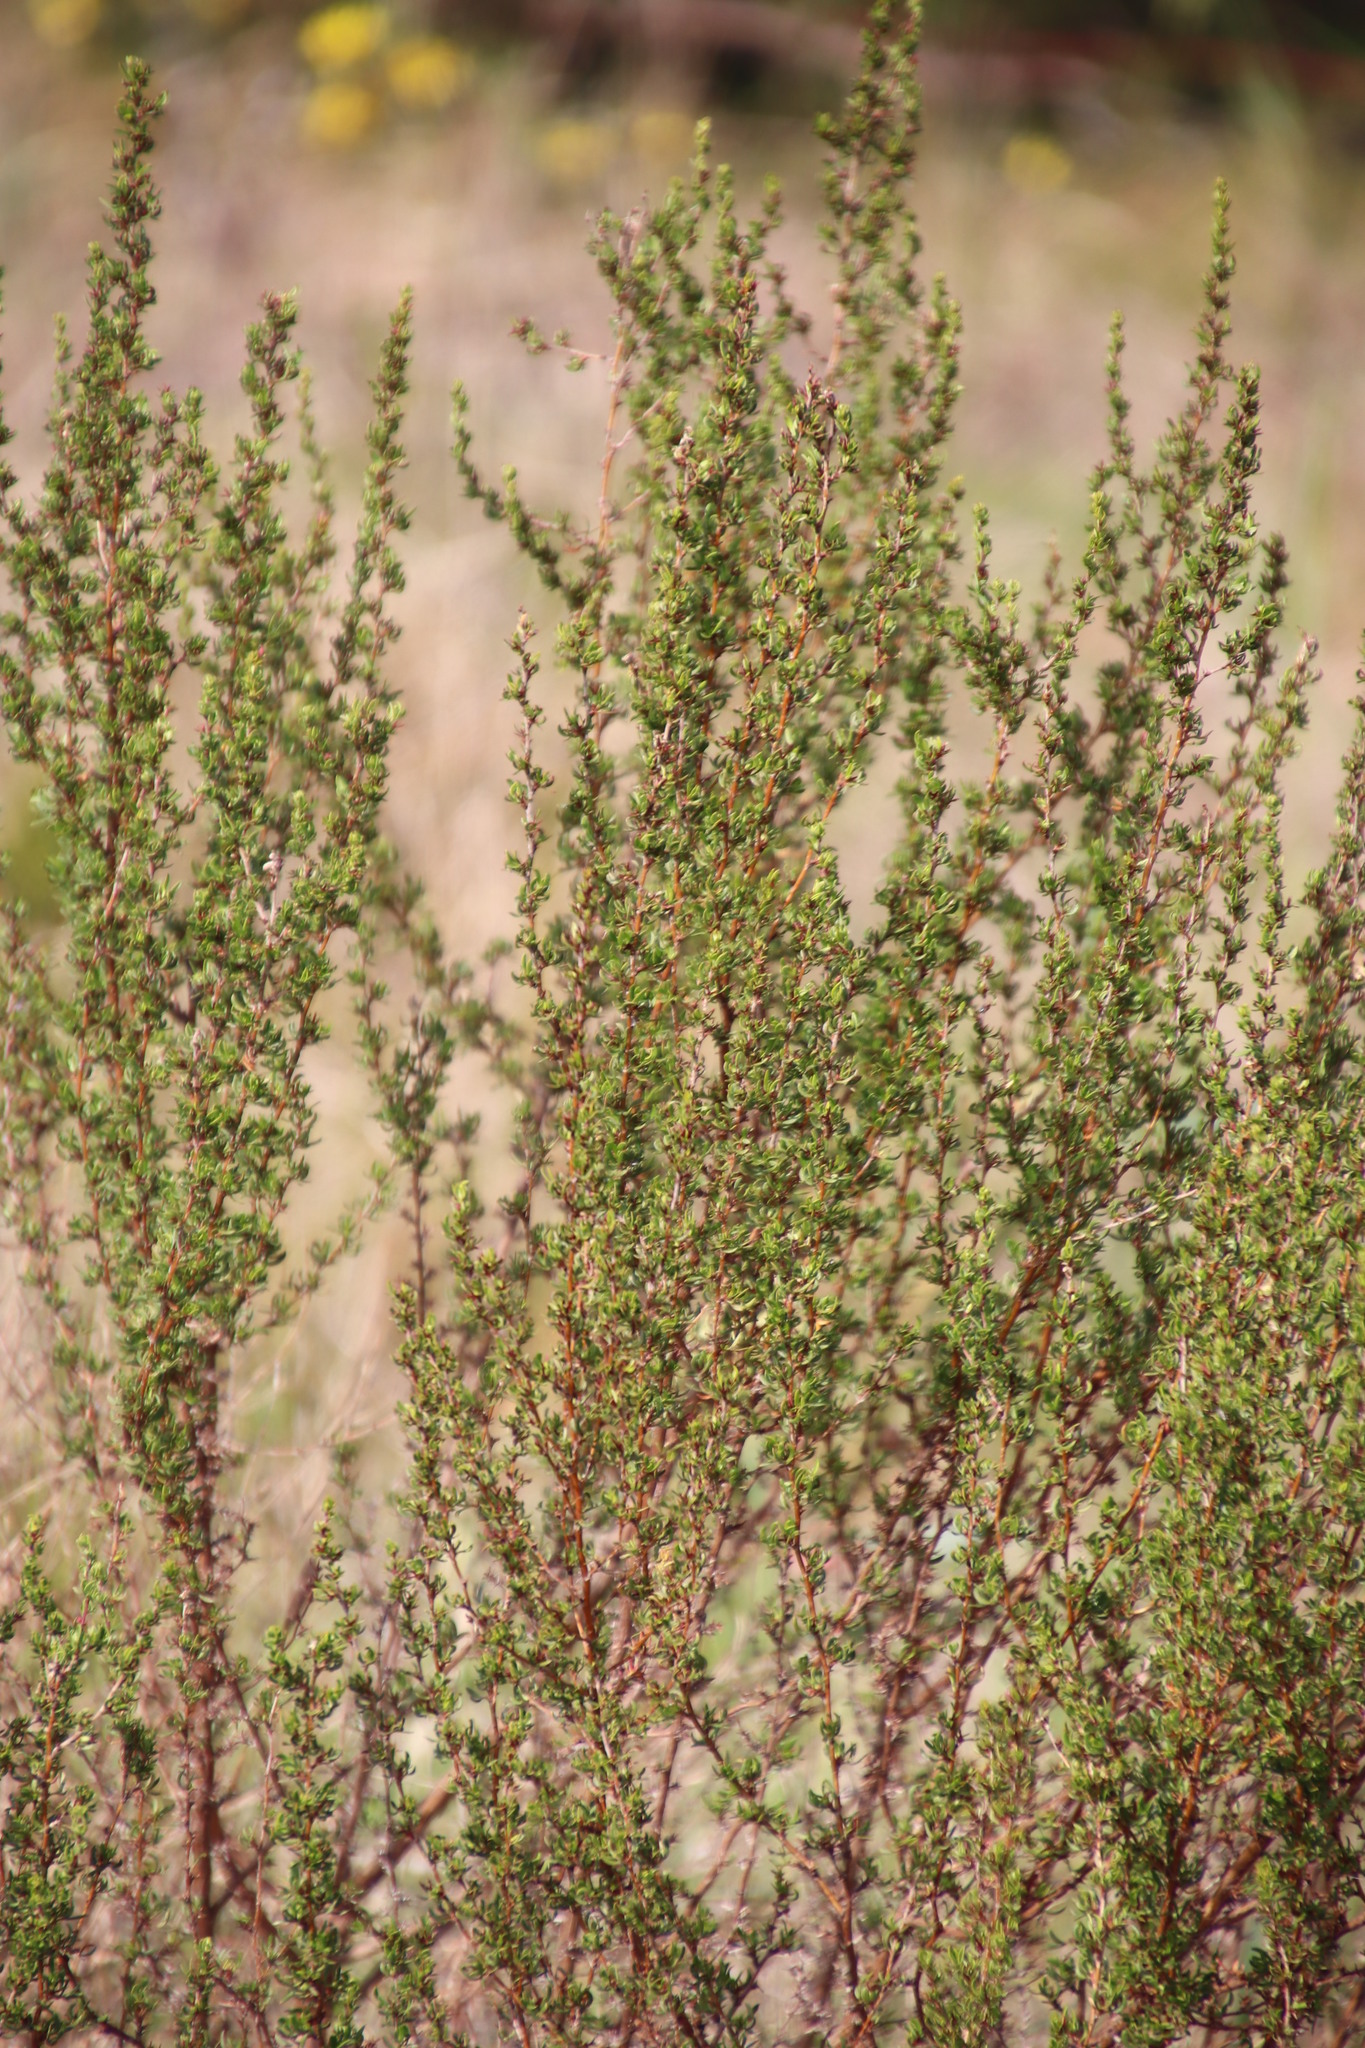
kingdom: Plantae
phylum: Tracheophyta
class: Magnoliopsida
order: Rosales
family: Rosaceae
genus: Cliffortia
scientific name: Cliffortia falcata
